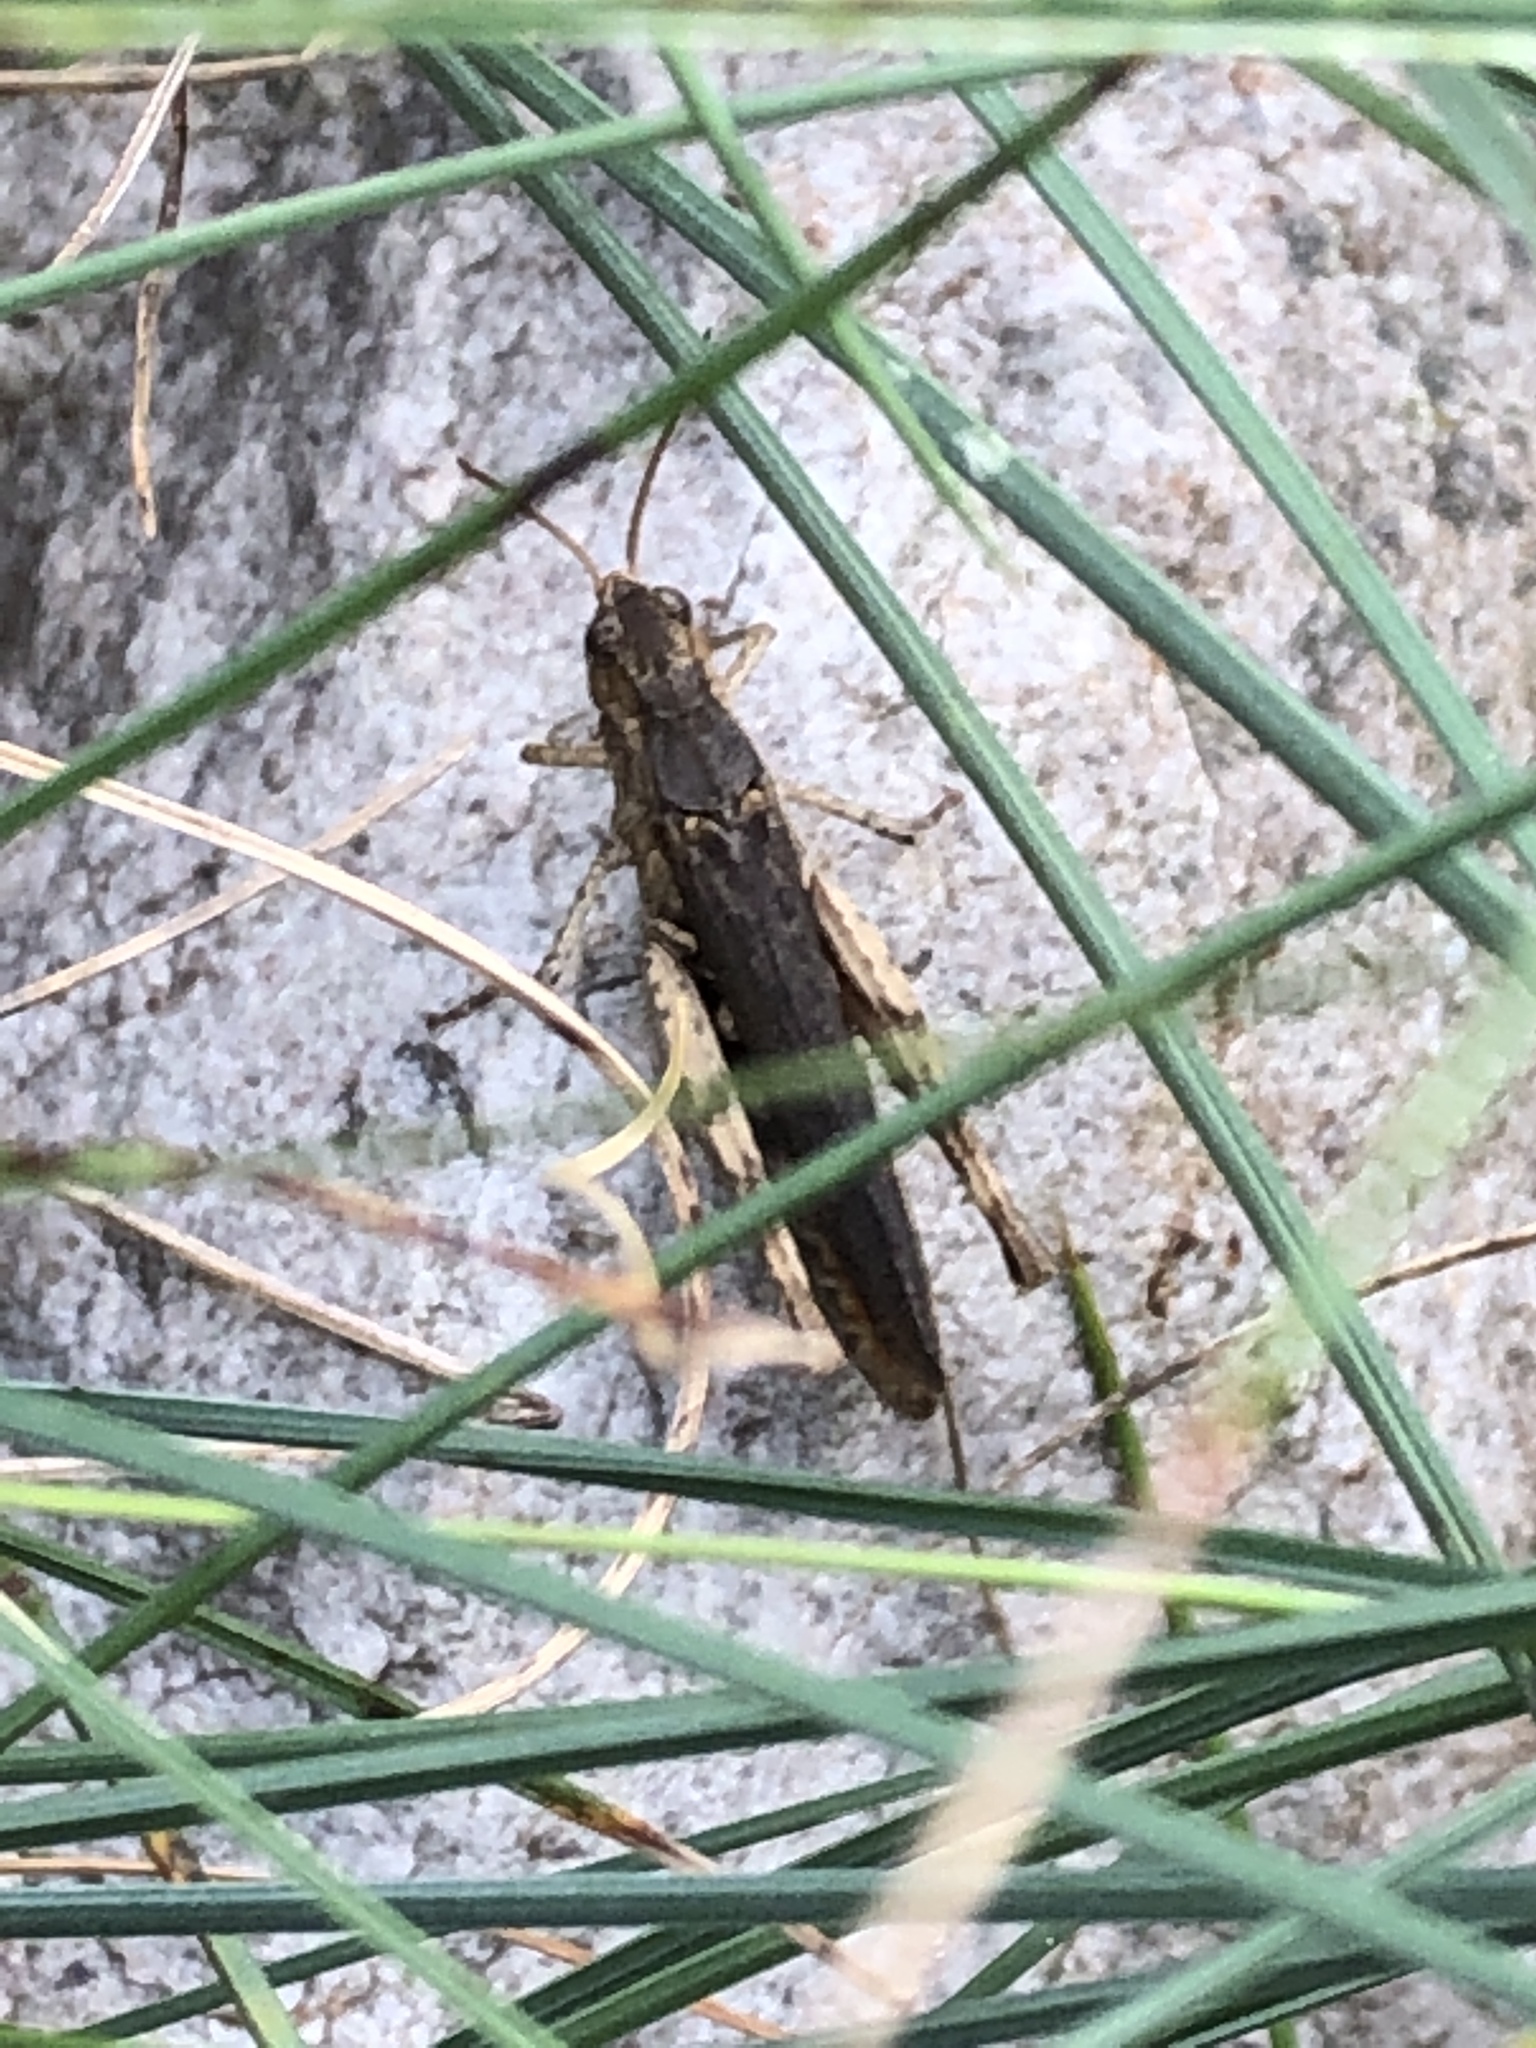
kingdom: Animalia
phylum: Arthropoda
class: Insecta
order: Orthoptera
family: Acrididae
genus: Chorthippus
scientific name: Chorthippus brunneus
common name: Field grasshopper
